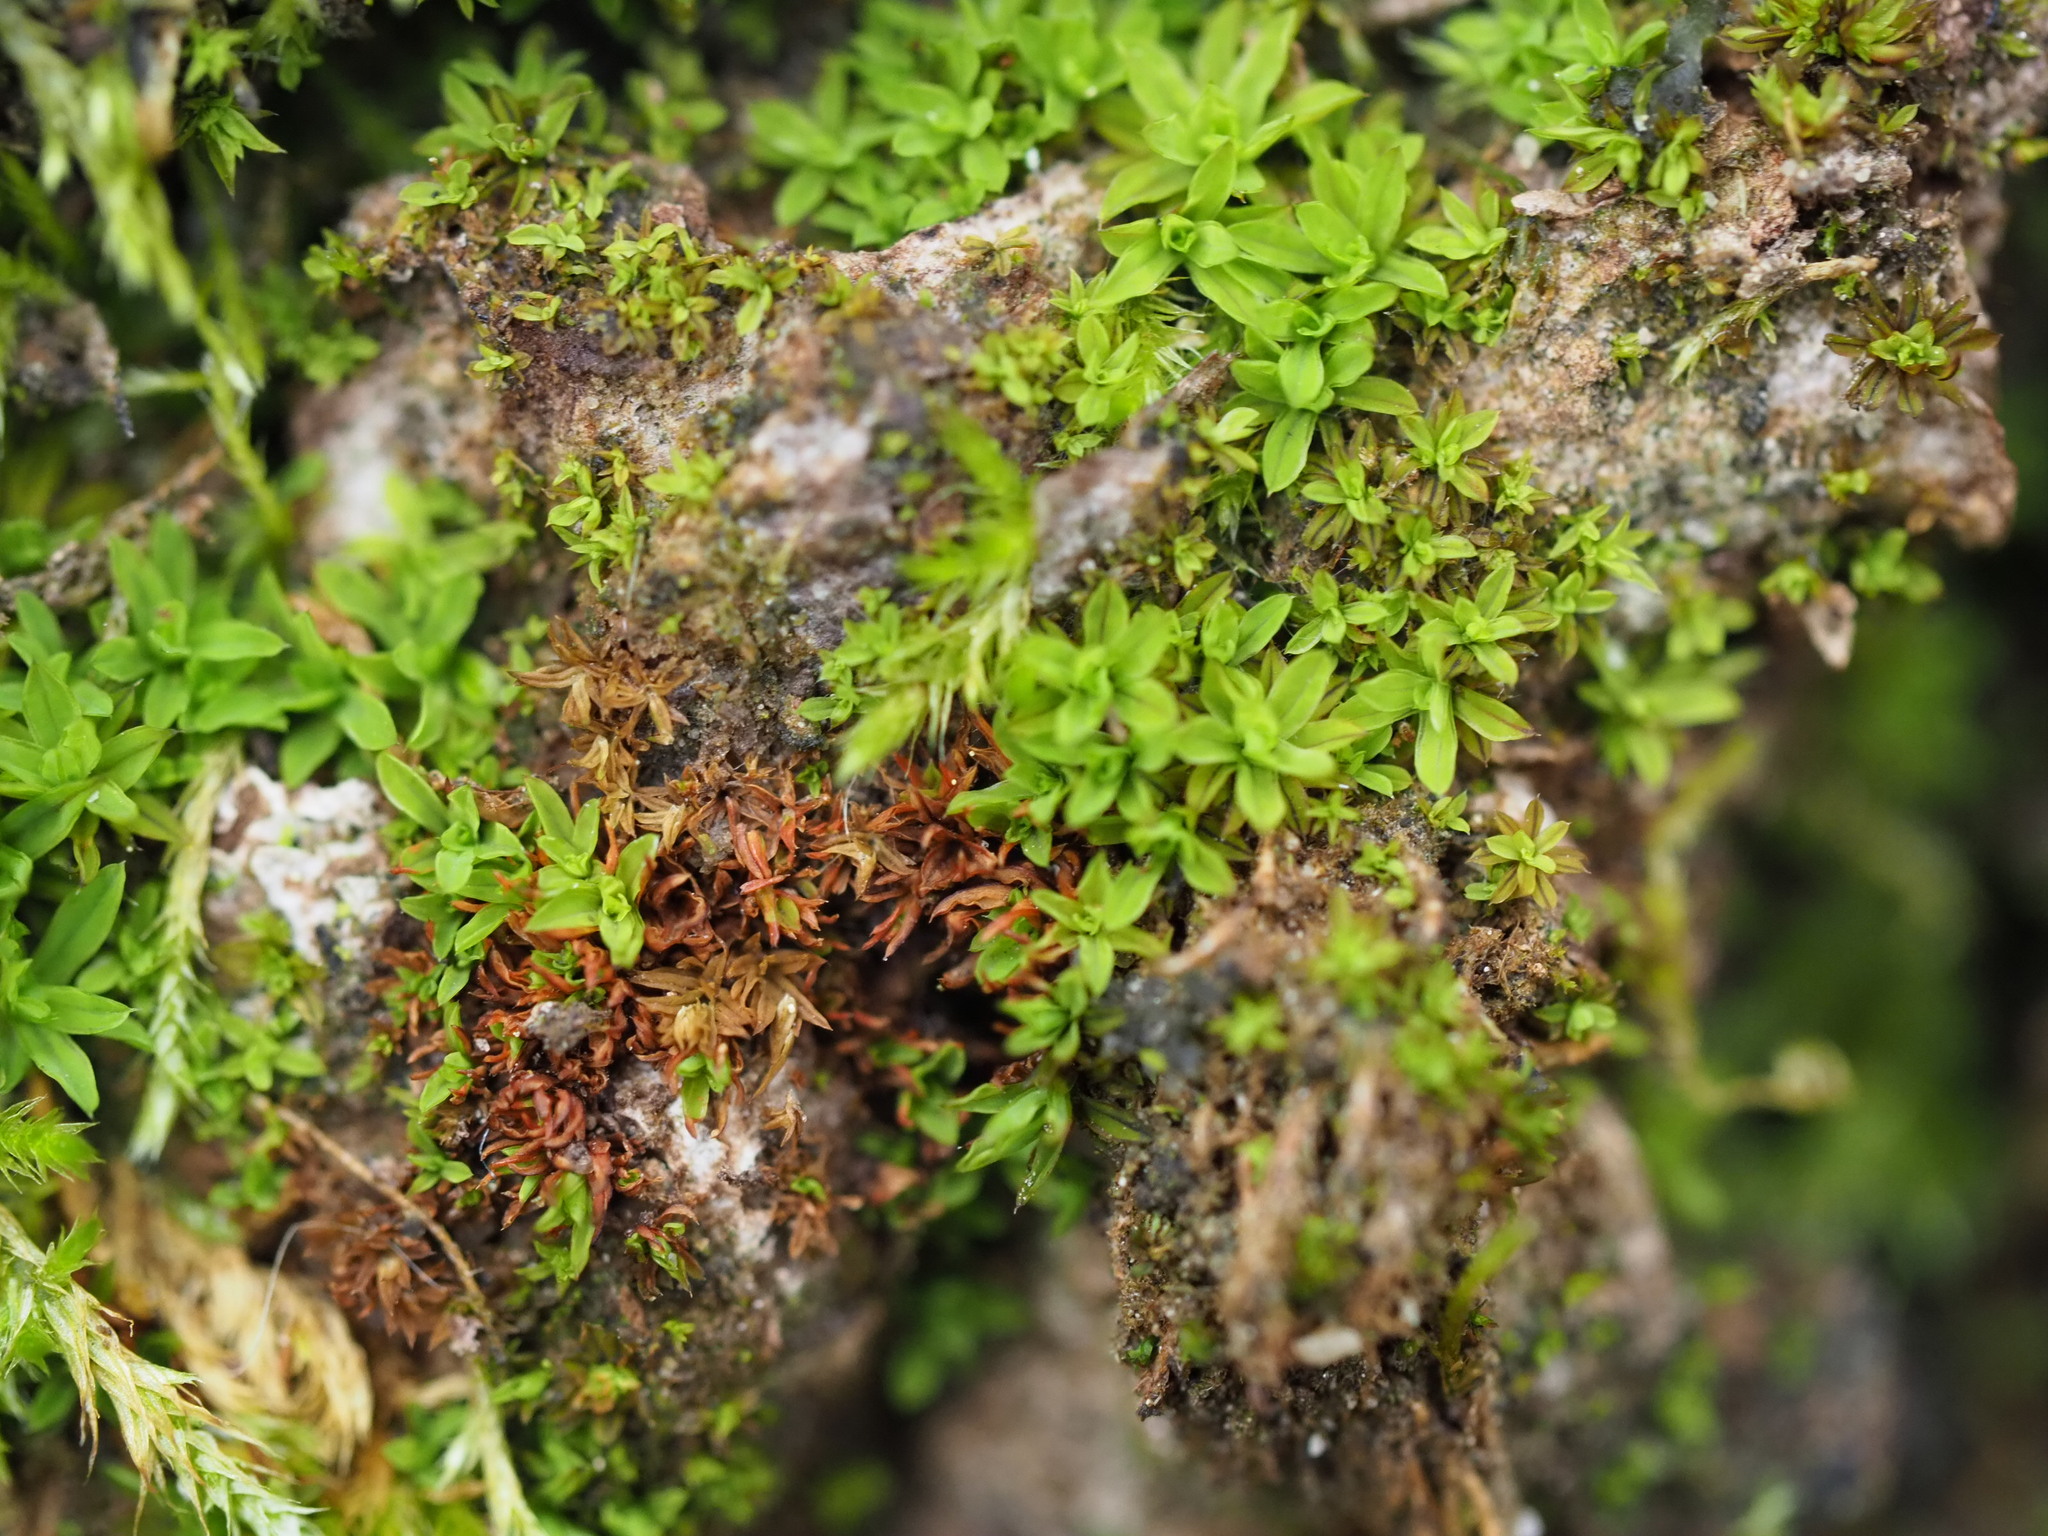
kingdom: Plantae
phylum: Bryophyta
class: Bryopsida
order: Pottiales
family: Pottiaceae
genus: Syntrichia
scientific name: Syntrichia latifolia
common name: Water screw-moss
